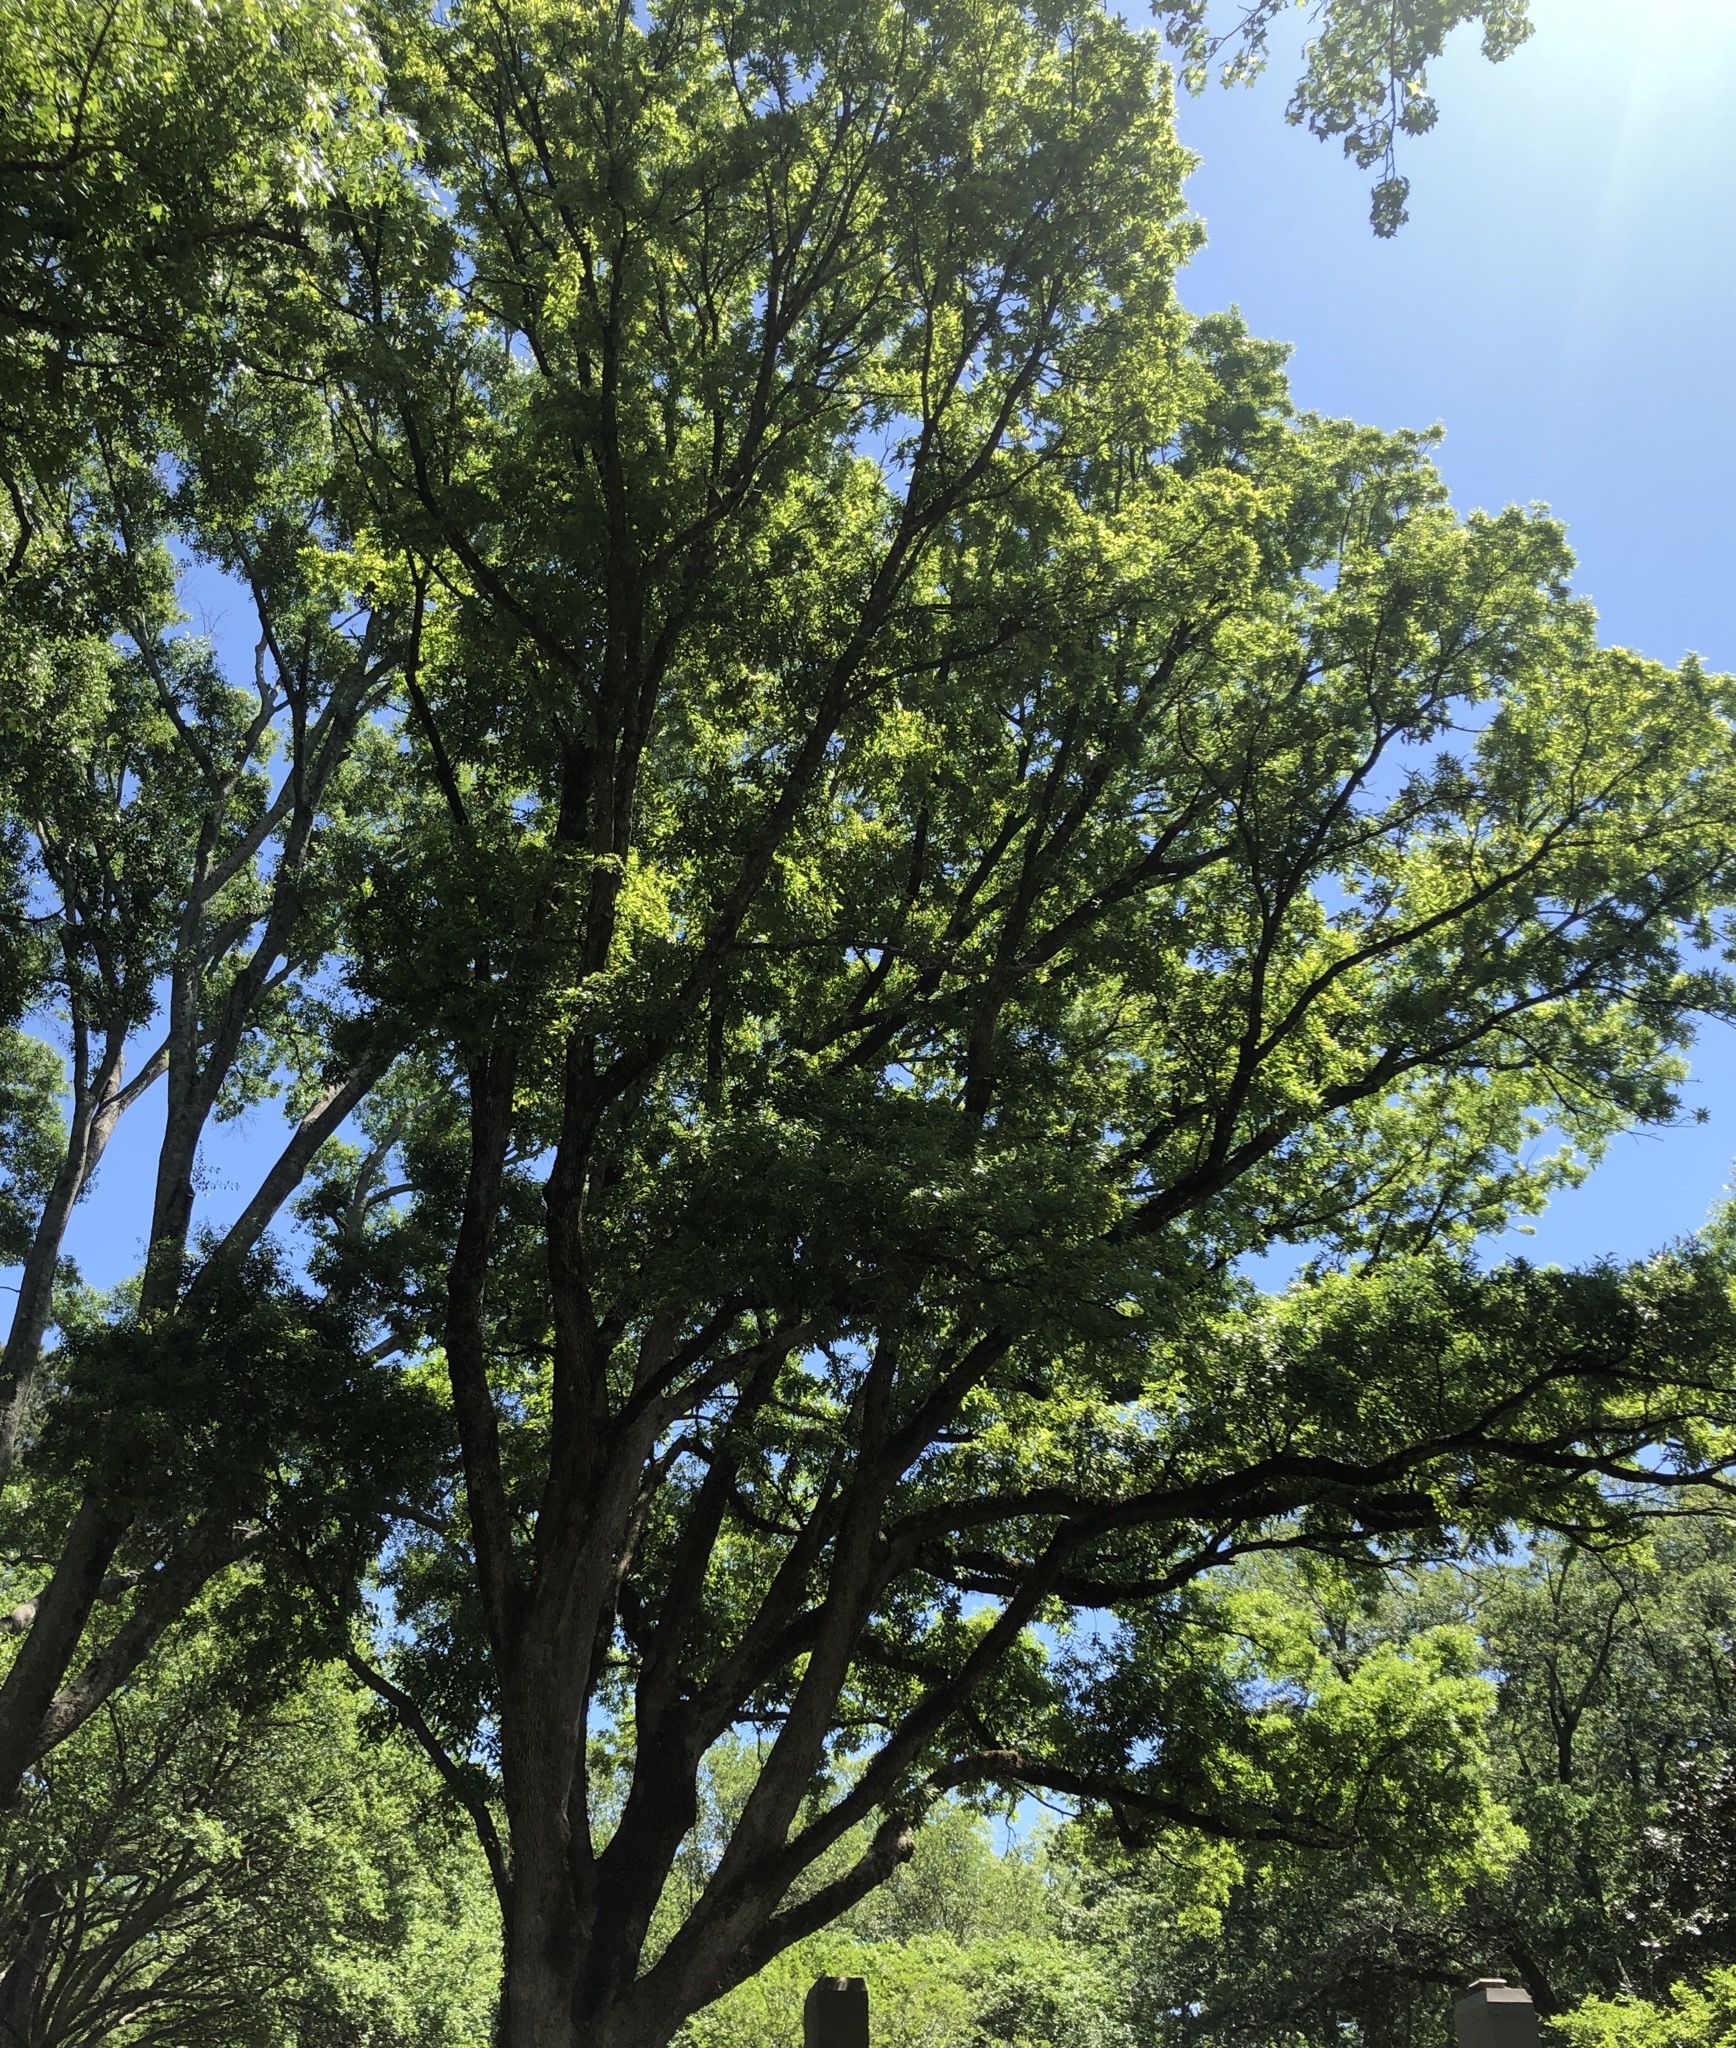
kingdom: Plantae
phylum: Tracheophyta
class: Magnoliopsida
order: Fagales
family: Fagaceae
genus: Quercus
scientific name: Quercus austrina
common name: Bastard white oak
